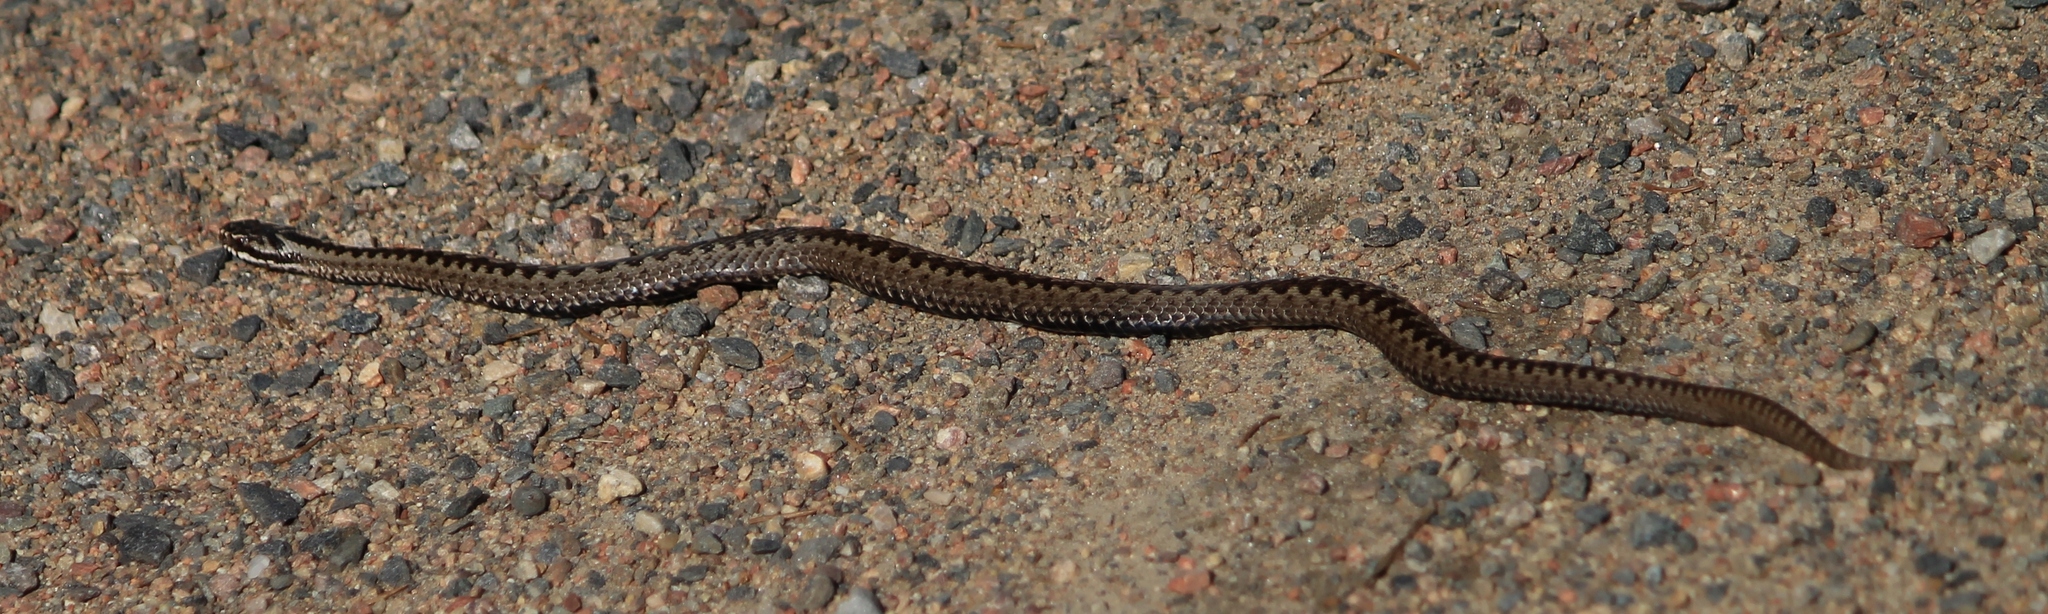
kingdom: Animalia
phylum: Chordata
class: Squamata
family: Viperidae
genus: Vipera
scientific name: Vipera berus
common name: Adder
